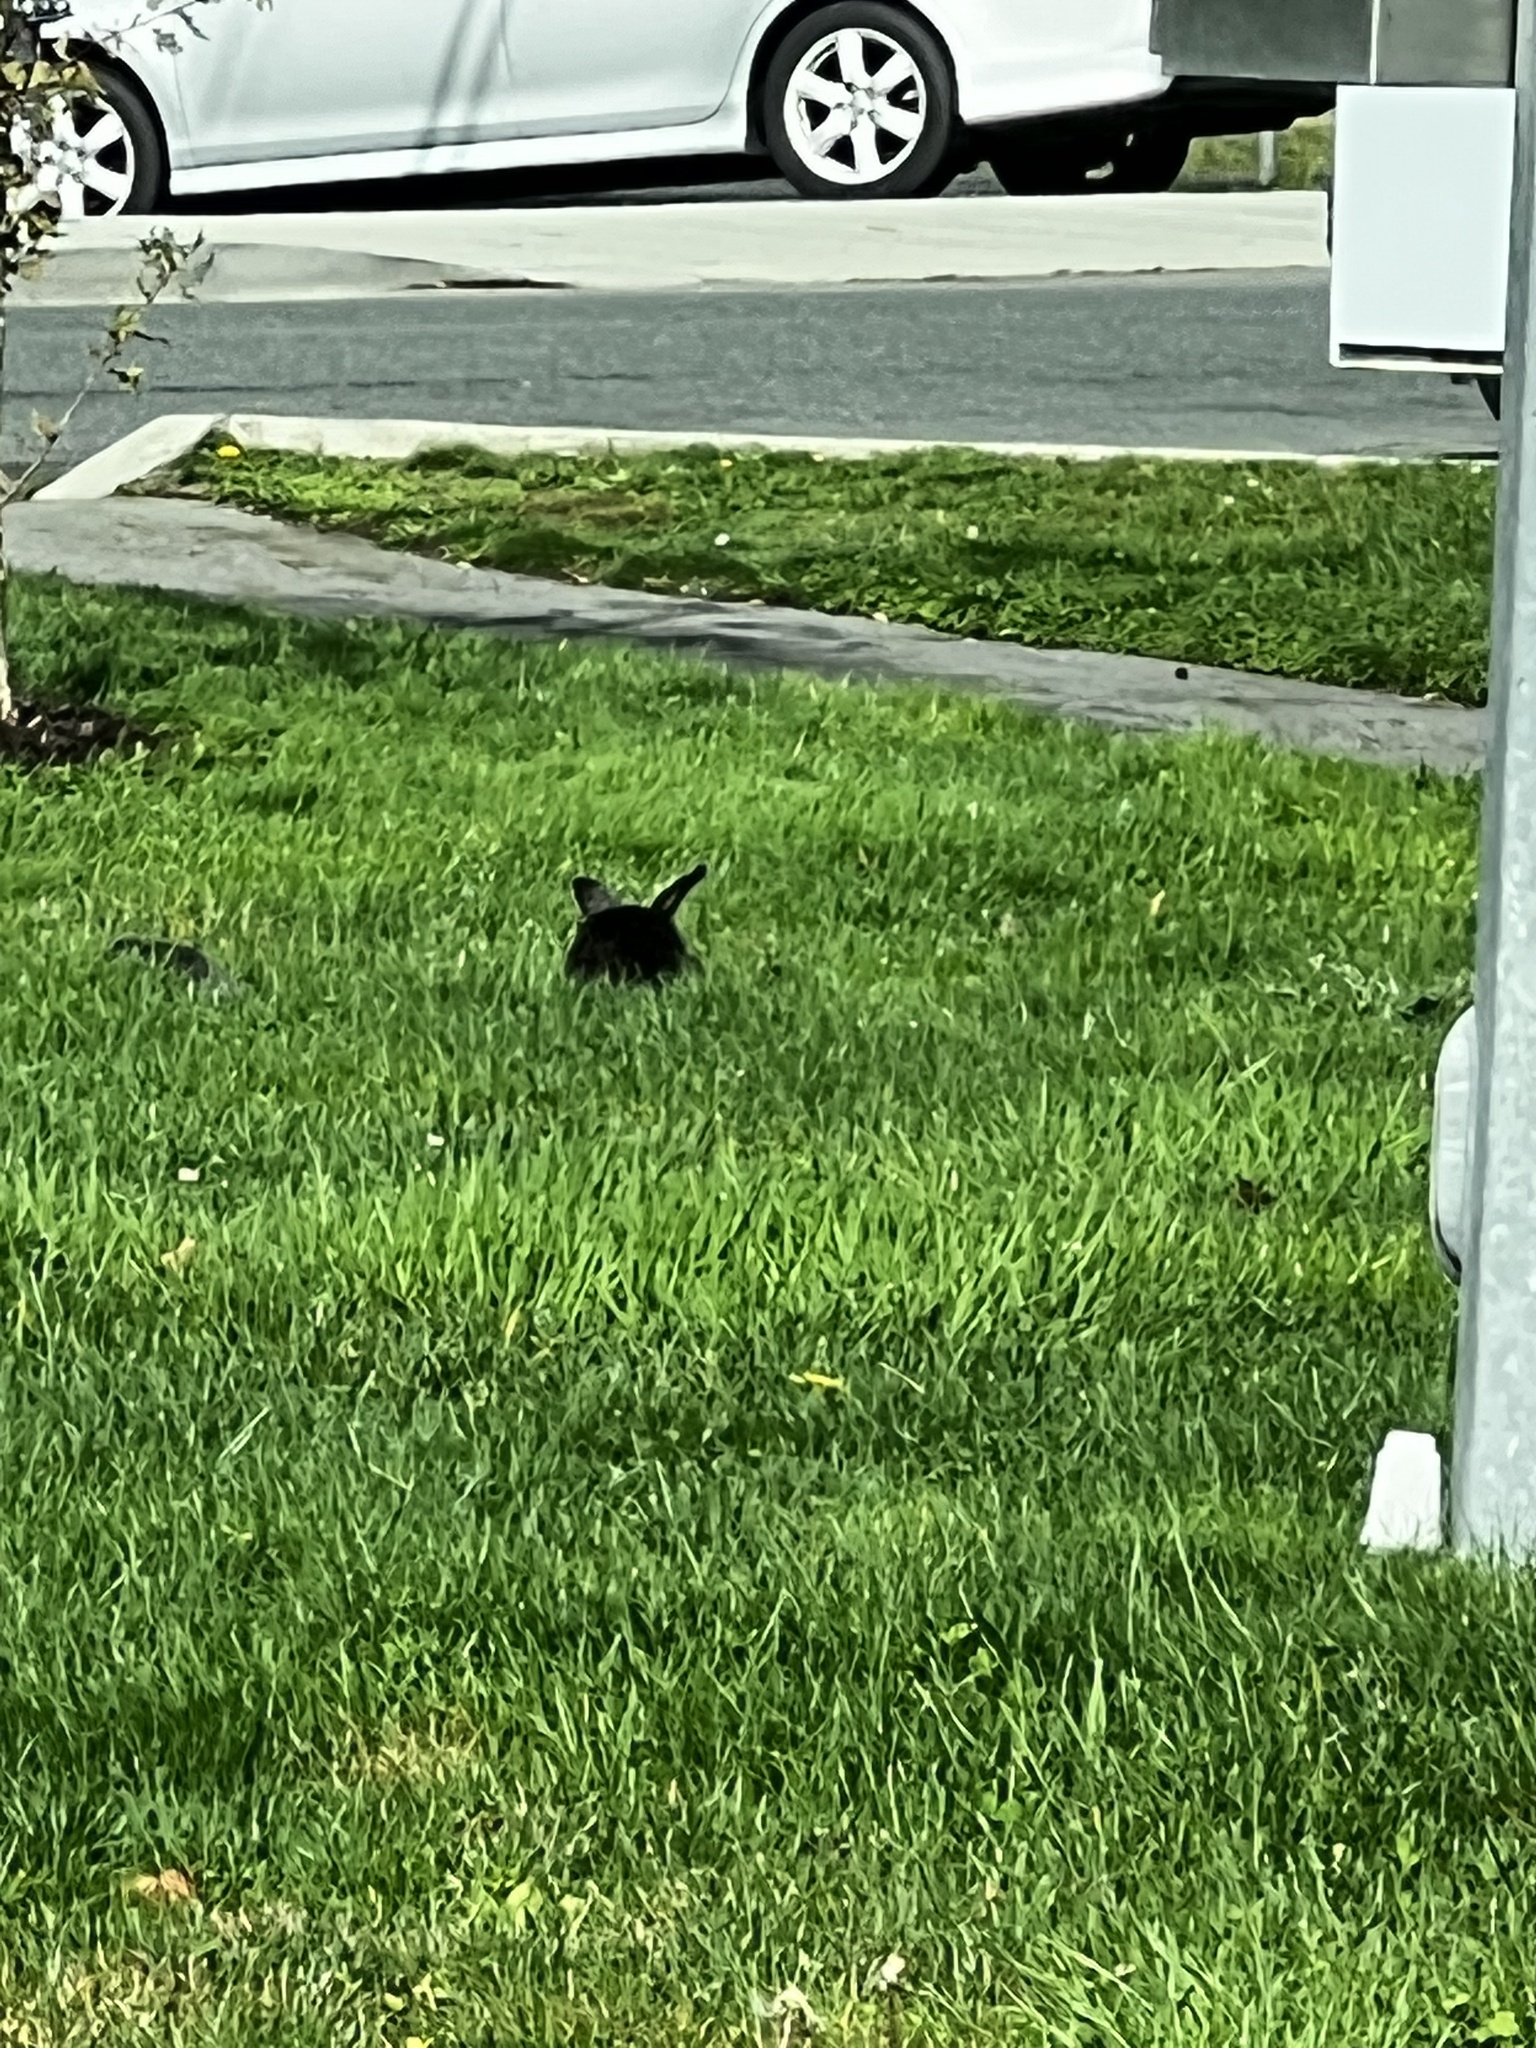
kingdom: Animalia
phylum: Chordata
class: Mammalia
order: Lagomorpha
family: Leporidae
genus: Oryctolagus
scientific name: Oryctolagus cuniculus
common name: European rabbit
